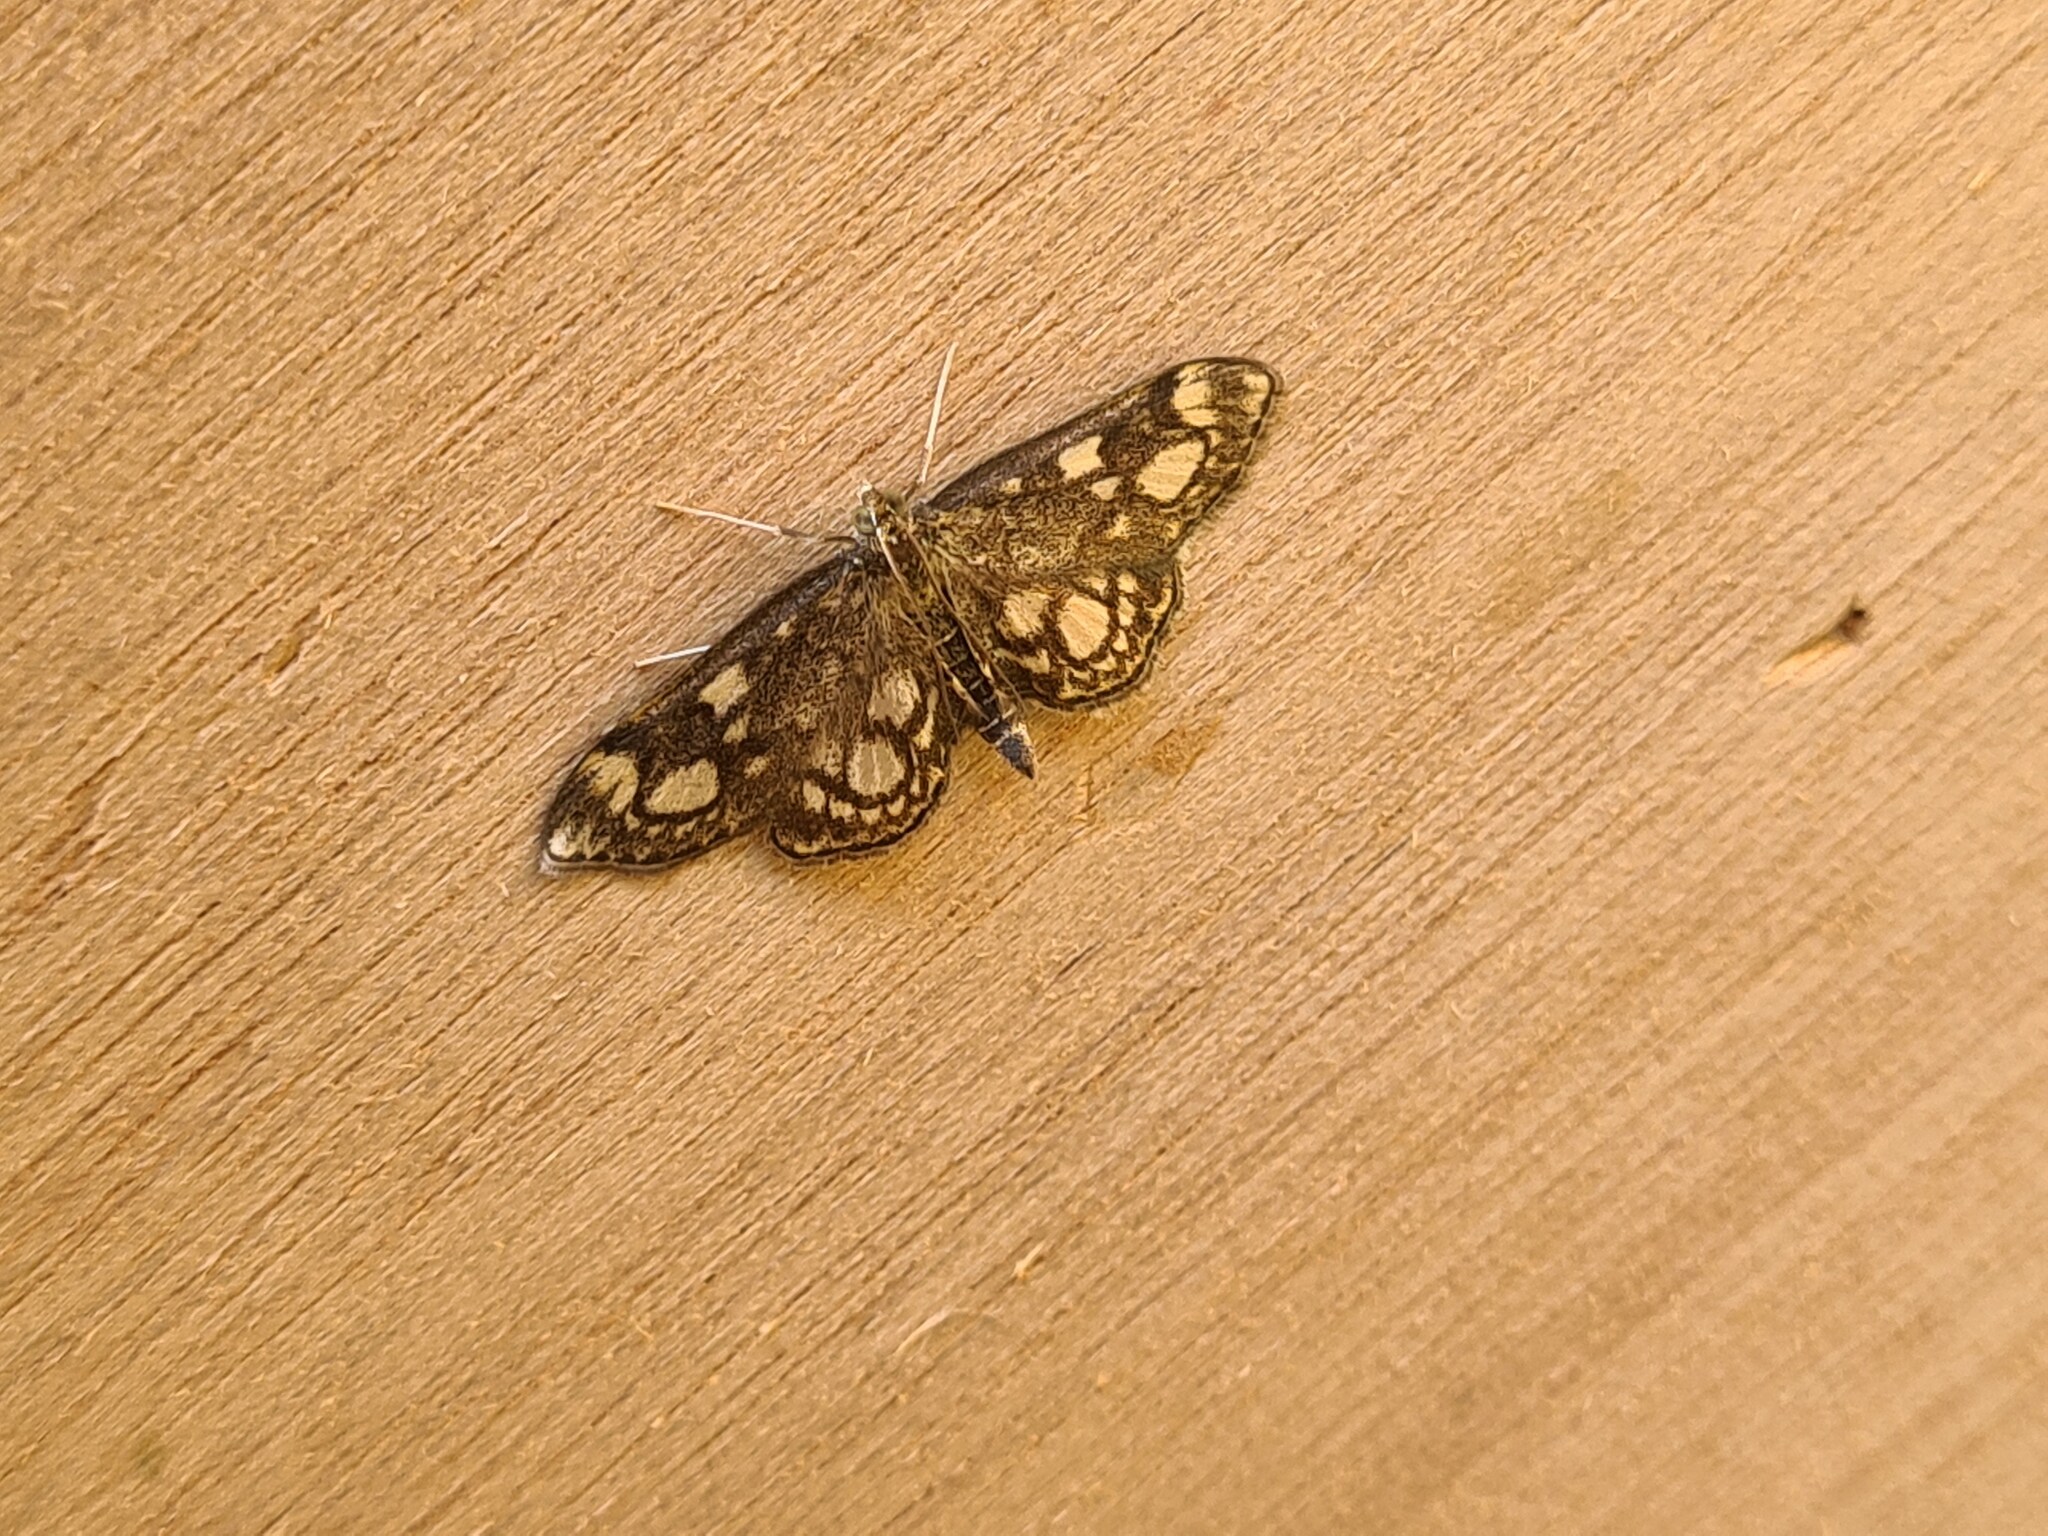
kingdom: Animalia
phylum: Arthropoda
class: Insecta
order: Lepidoptera
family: Crambidae
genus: Anania
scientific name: Anania coronata
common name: Elder pearl
